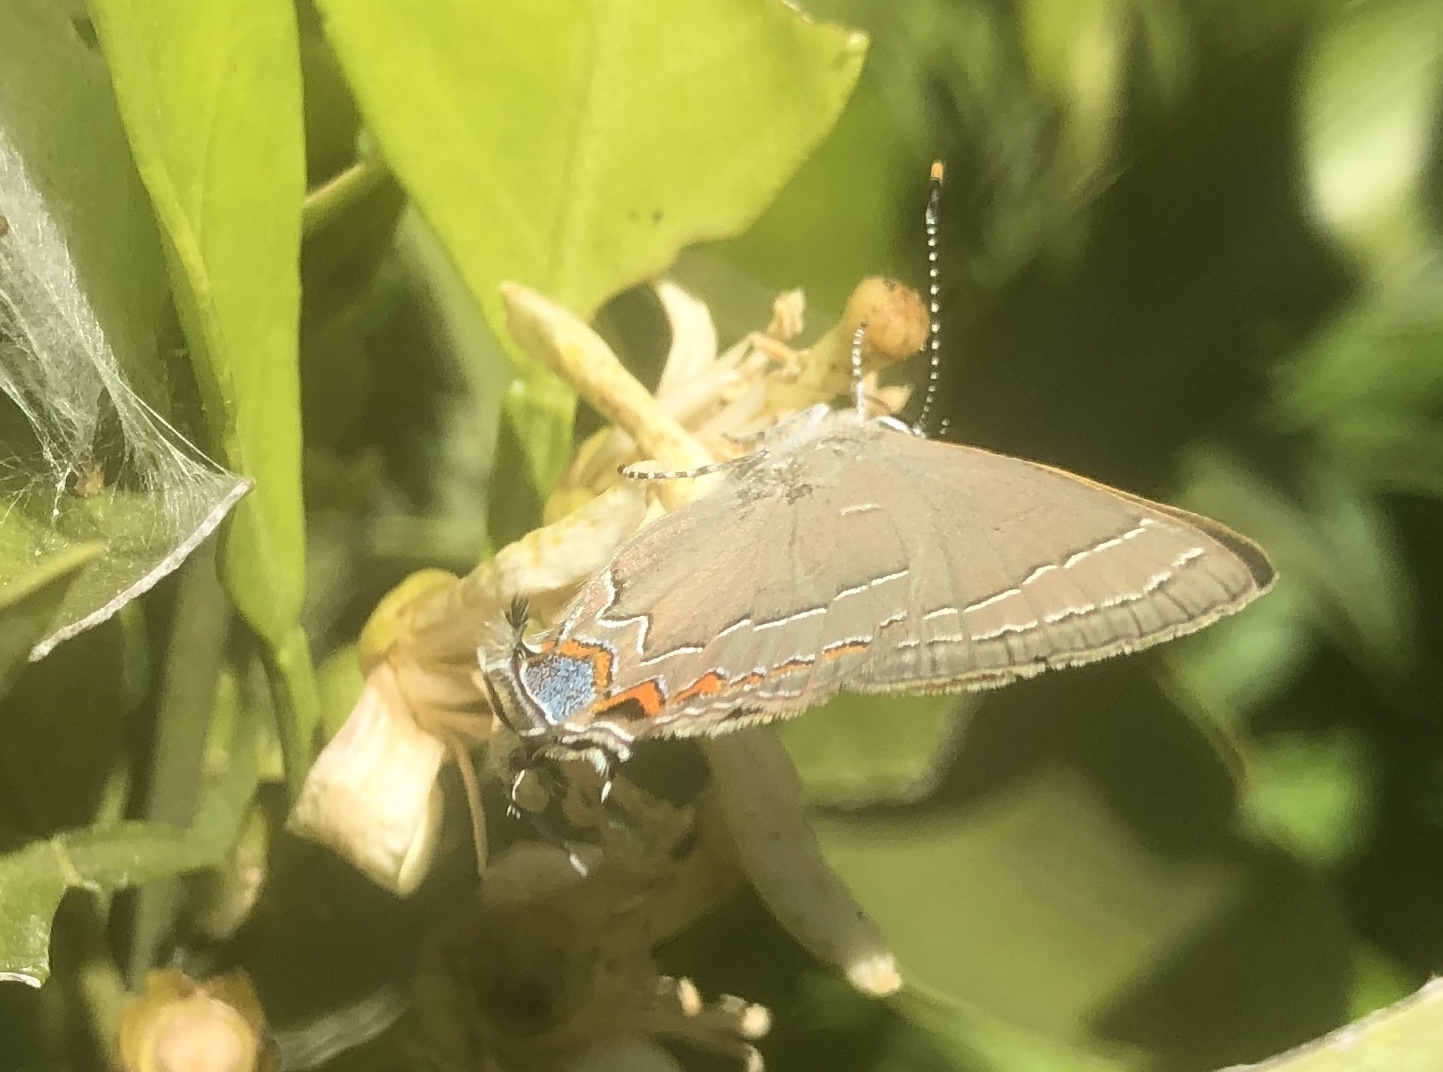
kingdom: Animalia
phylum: Arthropoda
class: Insecta
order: Lepidoptera
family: Lycaenidae
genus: Fixsenia
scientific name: Fixsenia favonius
